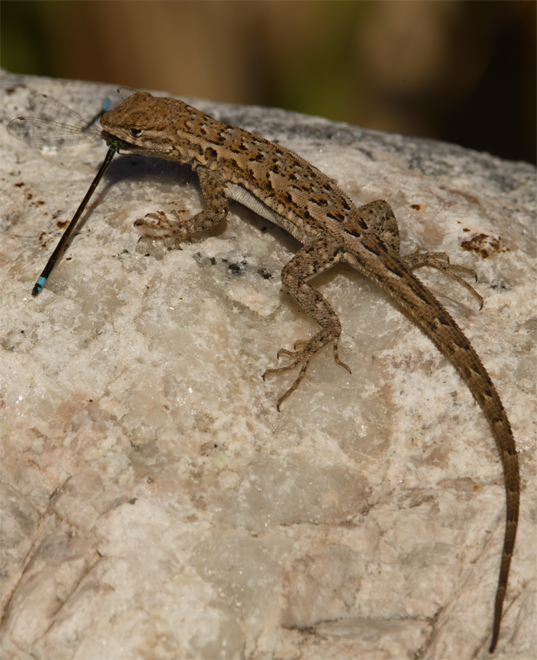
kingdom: Animalia
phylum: Chordata
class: Squamata
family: Phrynosomatidae
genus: Uta
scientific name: Uta stansburiana
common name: Side-blotched lizard
